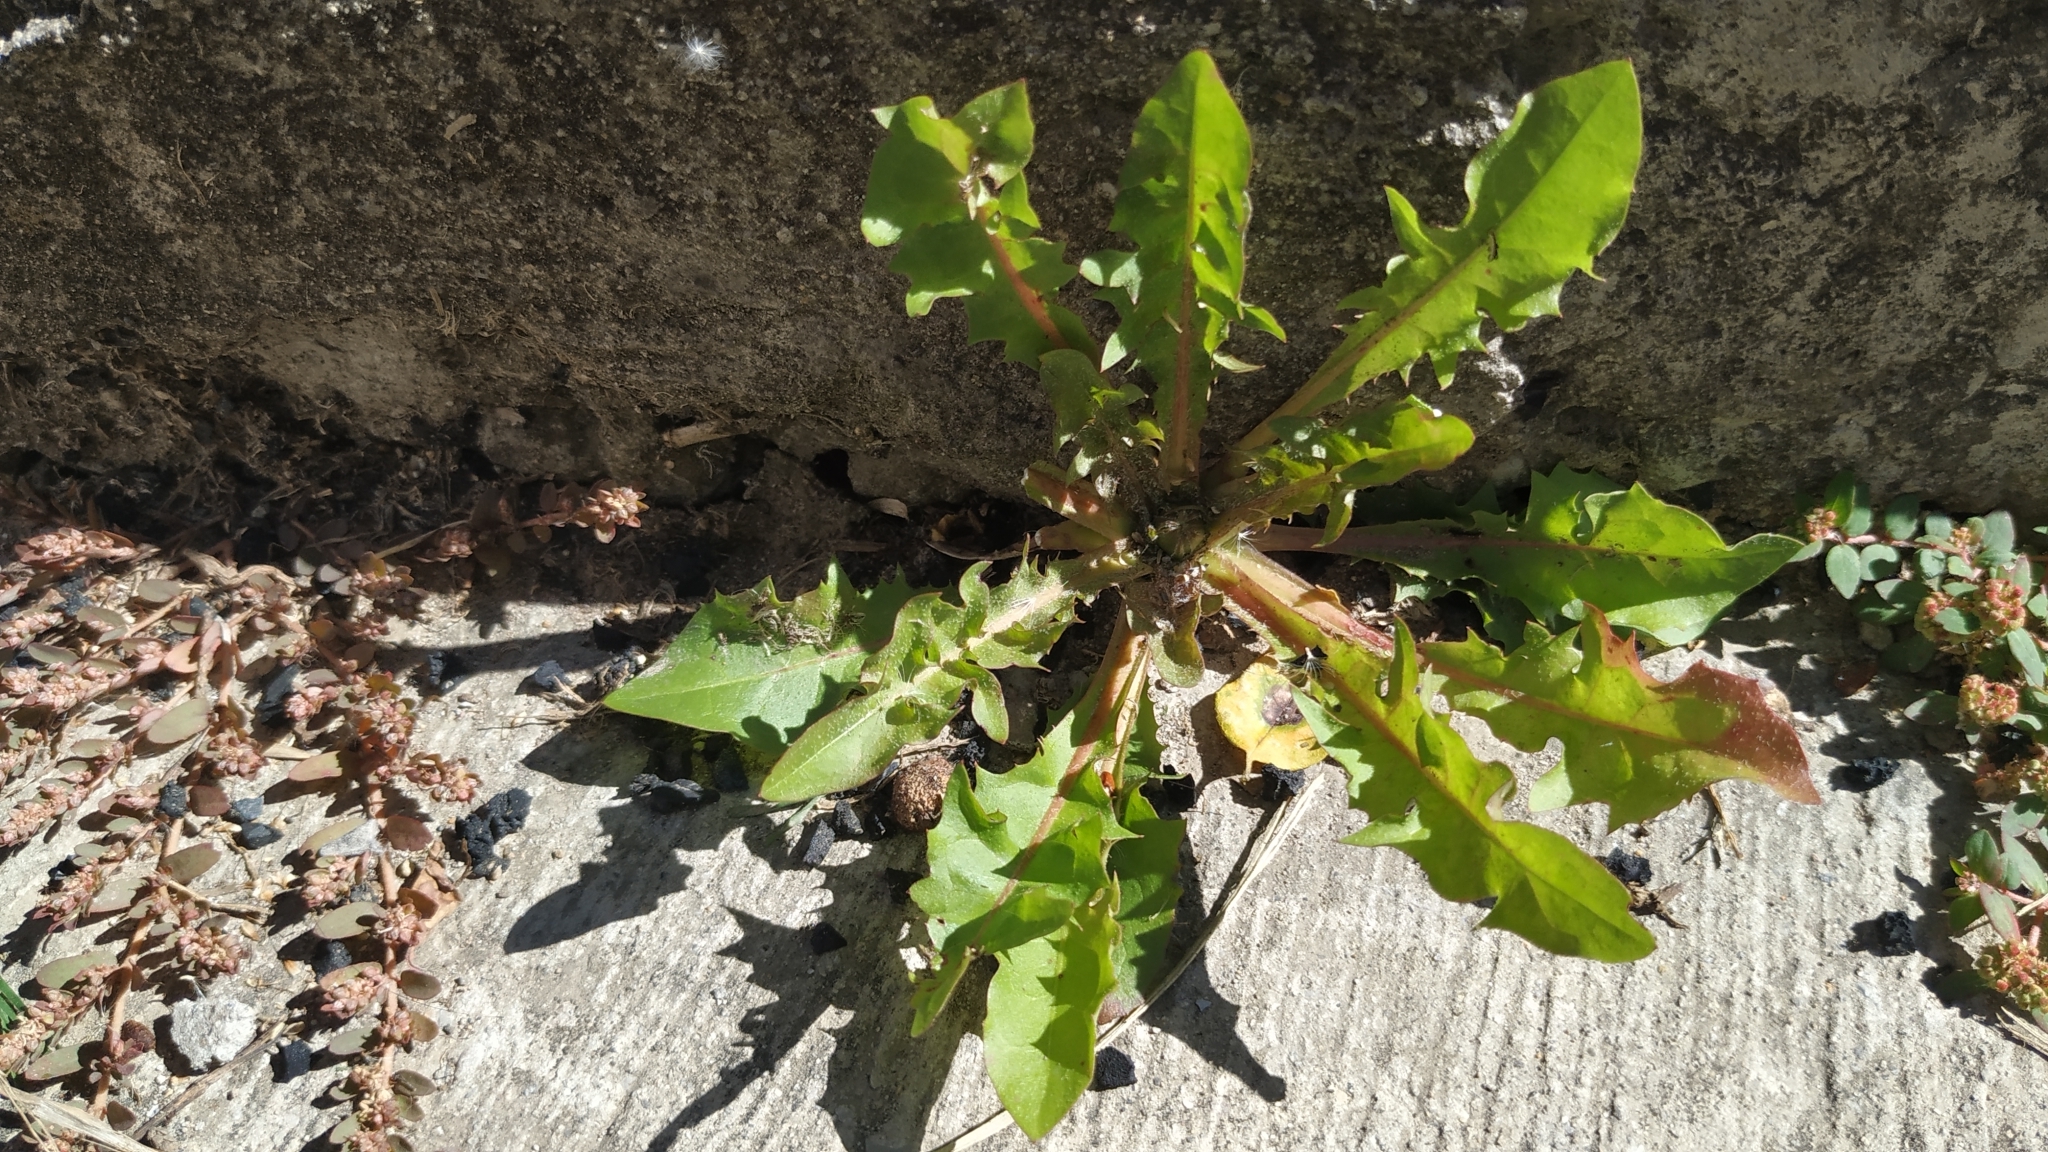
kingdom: Plantae
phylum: Tracheophyta
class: Magnoliopsida
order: Asterales
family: Asteraceae
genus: Taraxacum
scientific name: Taraxacum officinale
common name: Common dandelion
